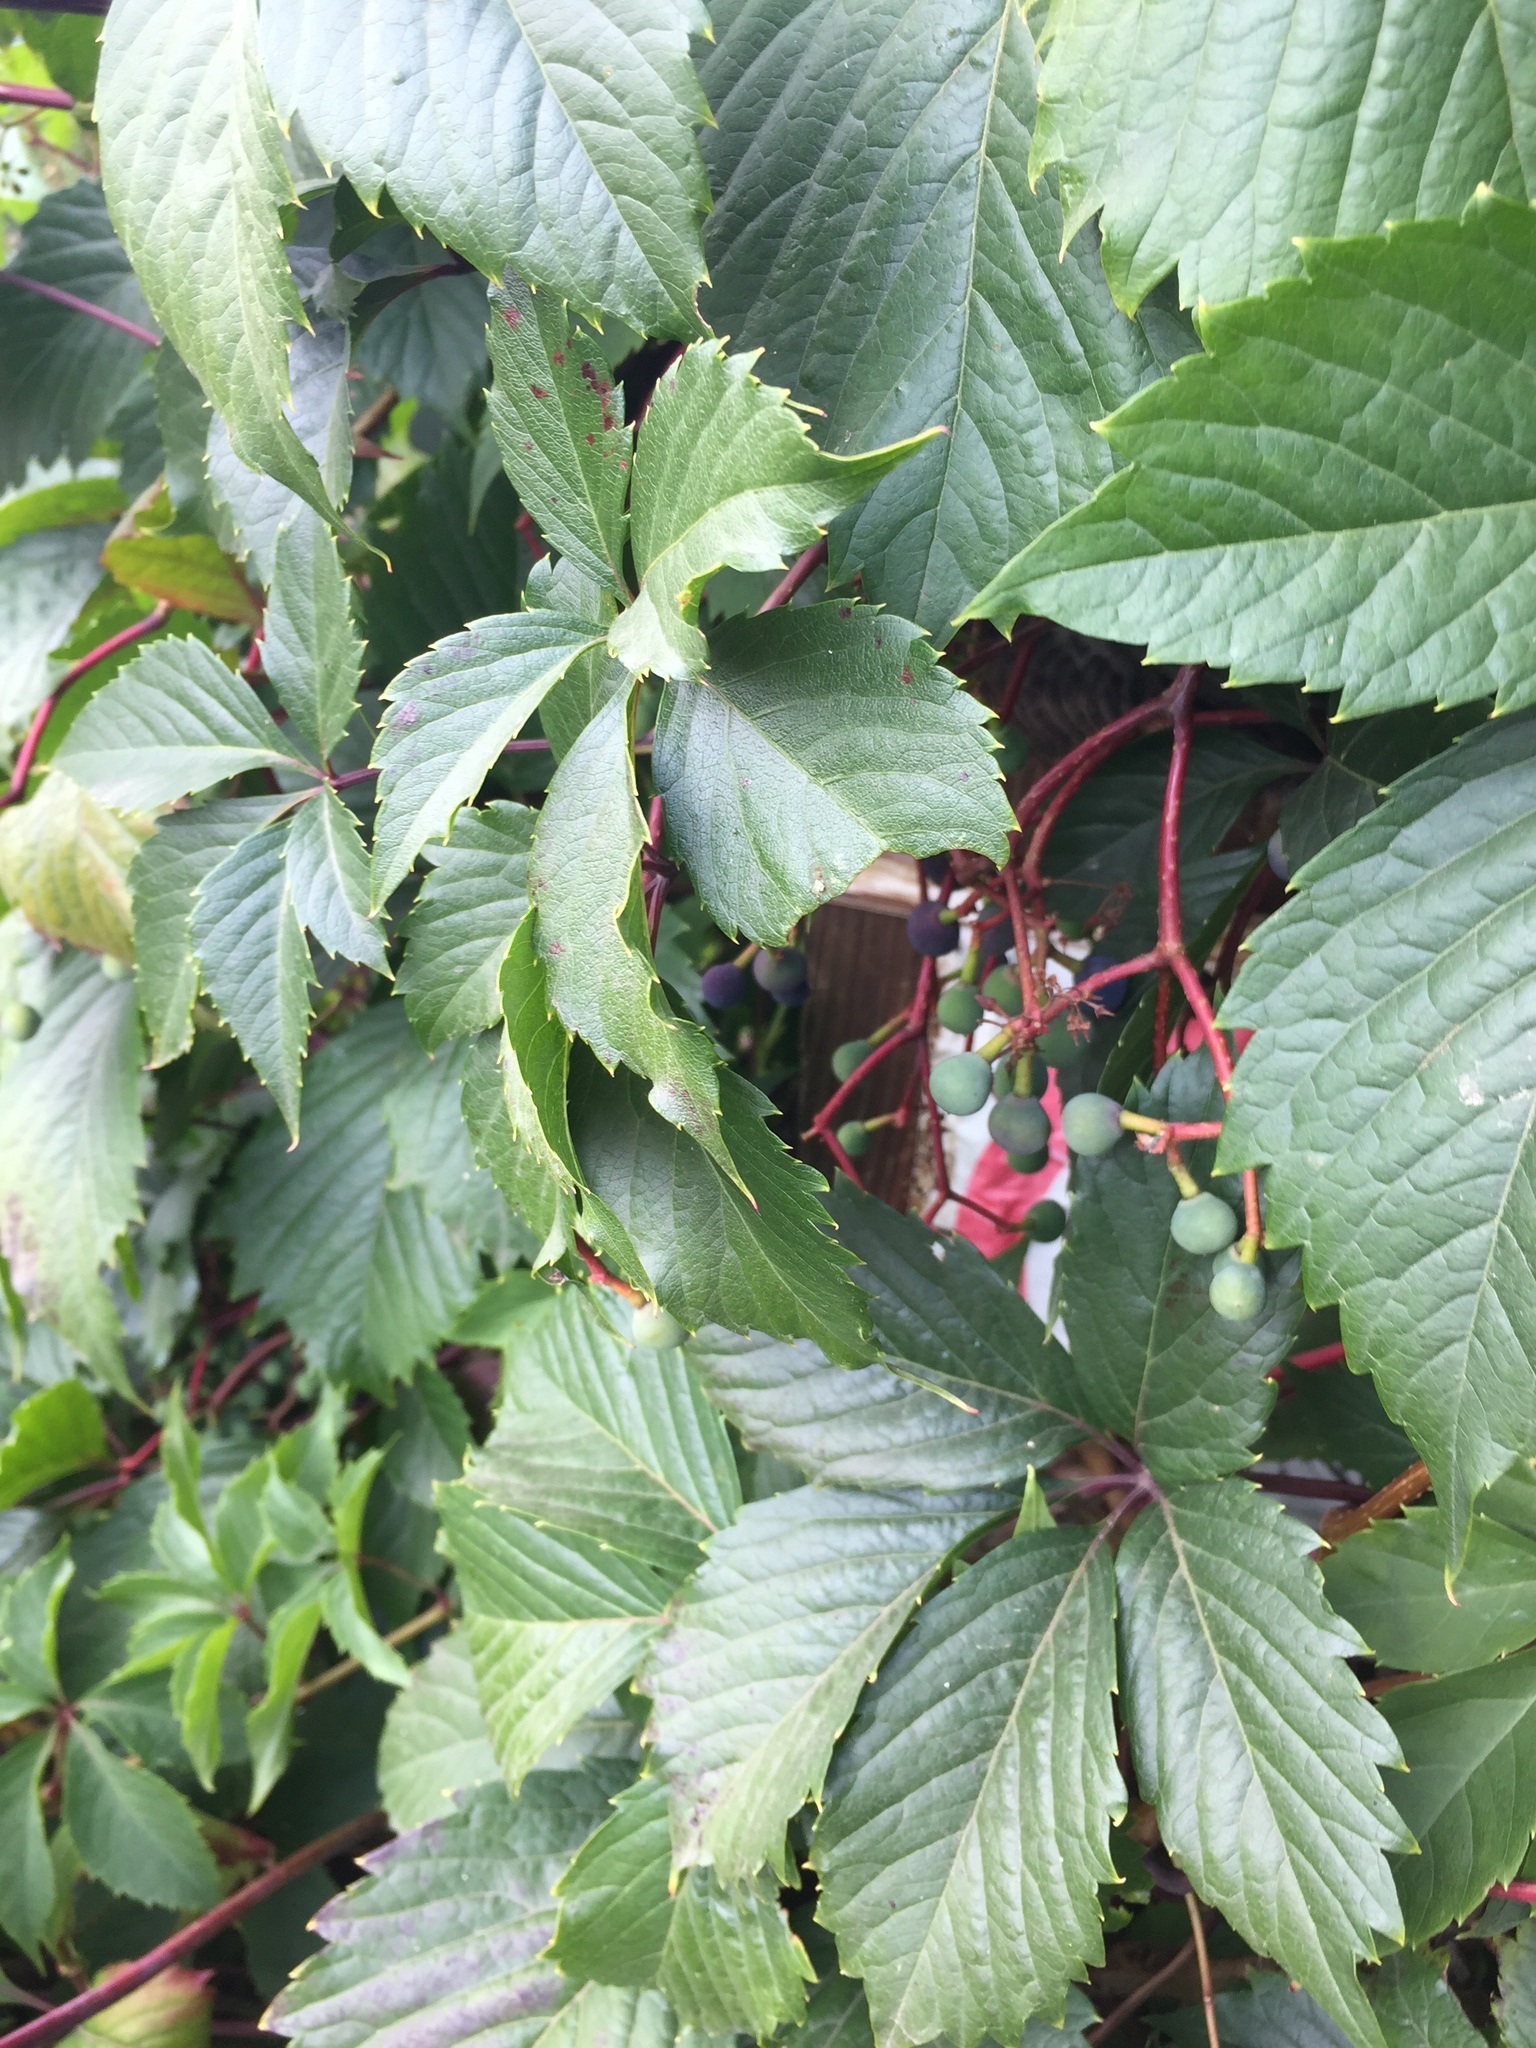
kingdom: Plantae
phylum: Tracheophyta
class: Magnoliopsida
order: Vitales
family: Vitaceae
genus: Parthenocissus
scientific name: Parthenocissus inserta
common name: False virginia-creeper
